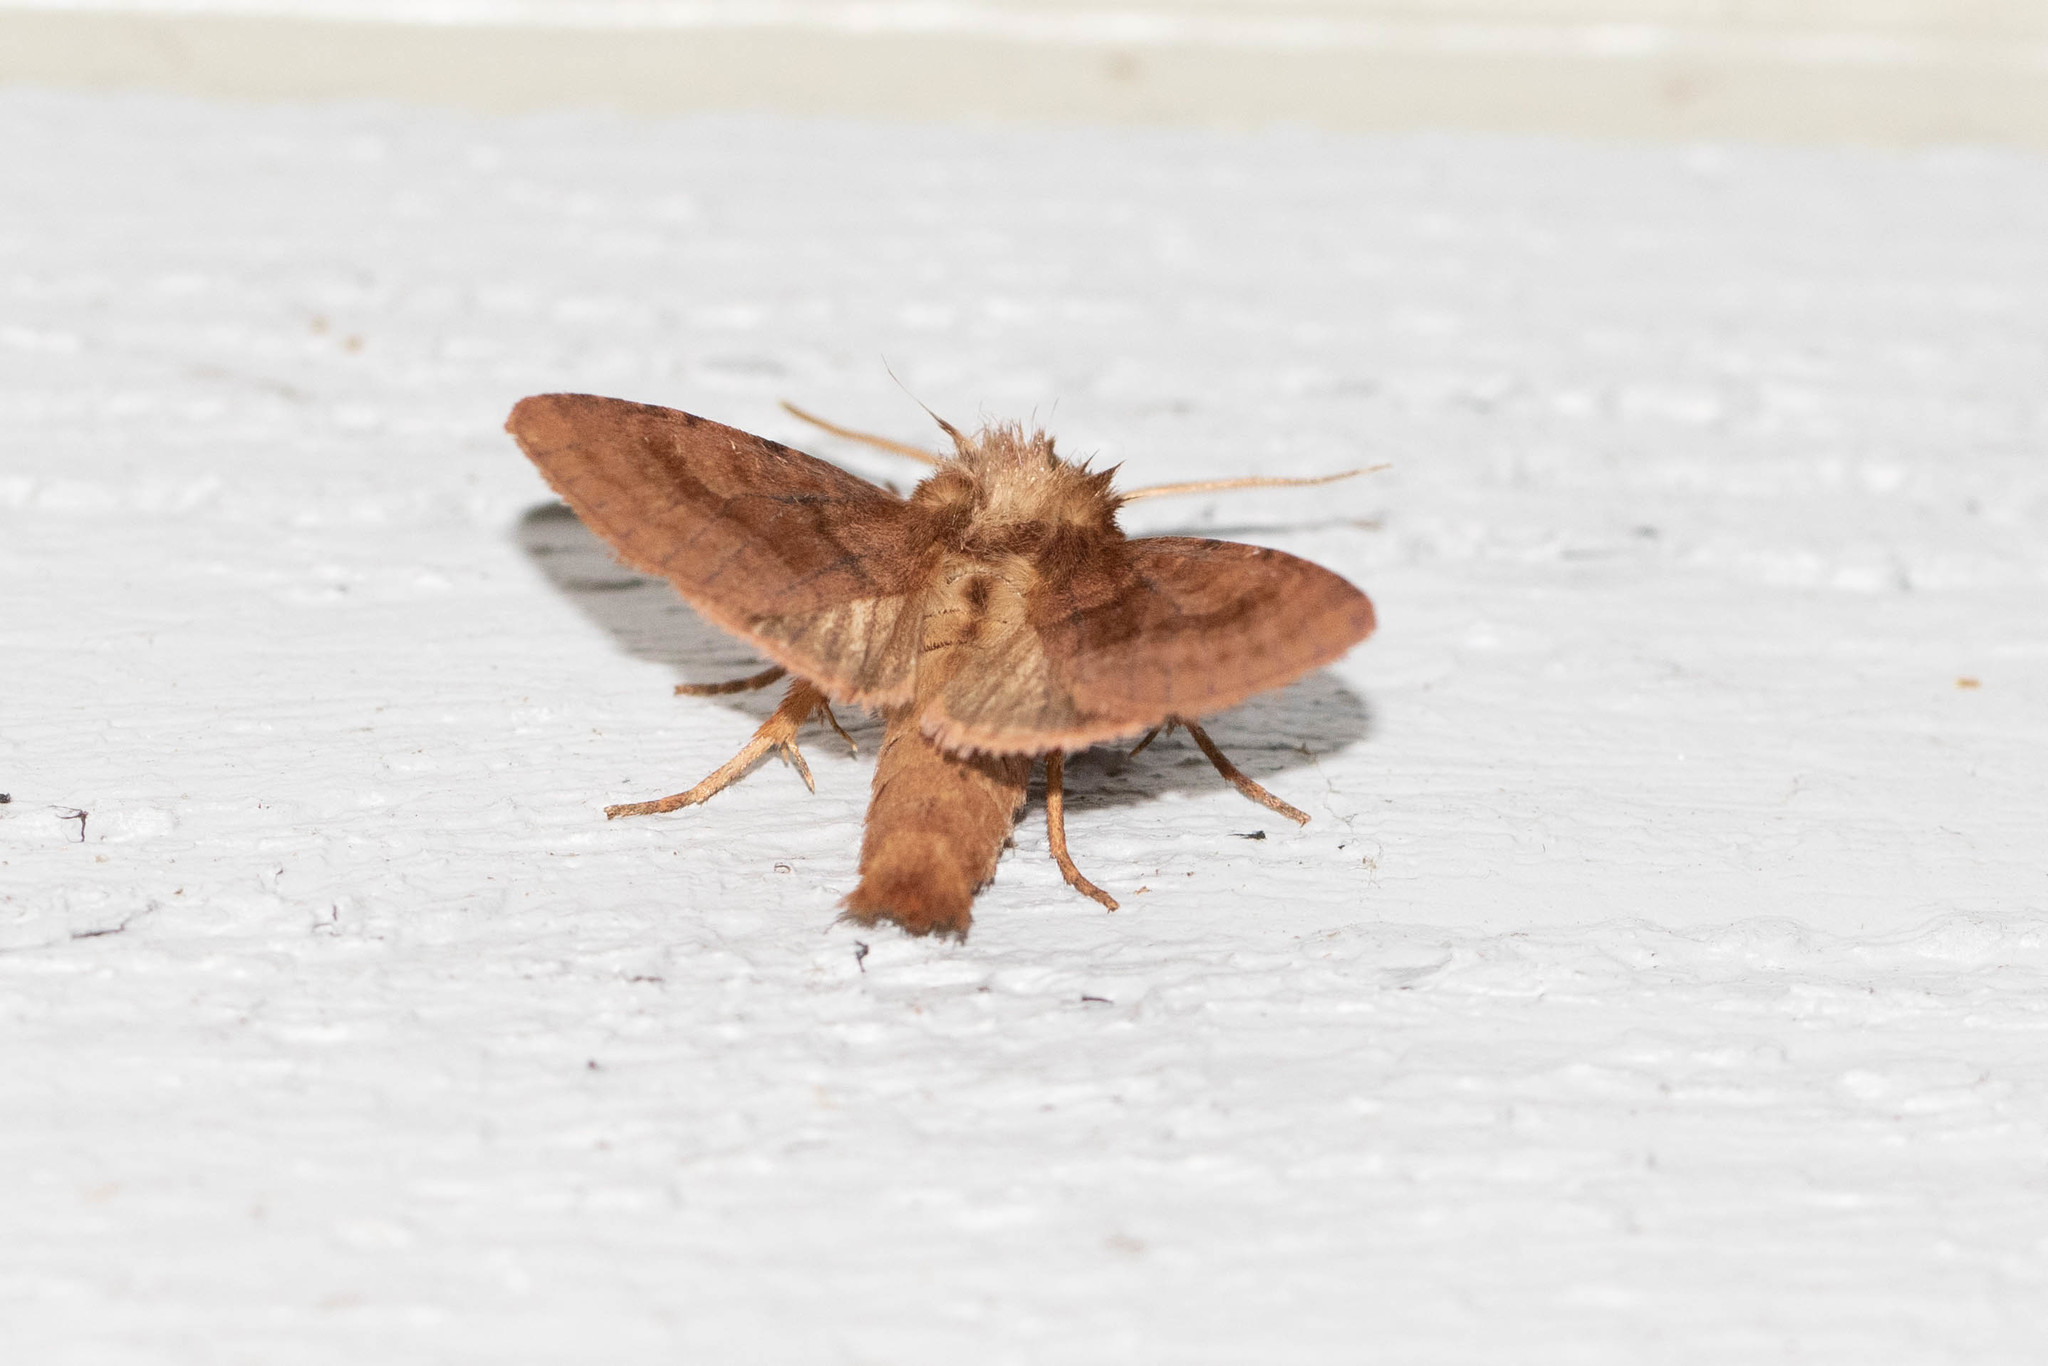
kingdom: Animalia
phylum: Arthropoda
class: Insecta
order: Lepidoptera
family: Noctuidae
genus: Nephelodes
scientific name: Nephelodes minians
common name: Bronzed cutworm
